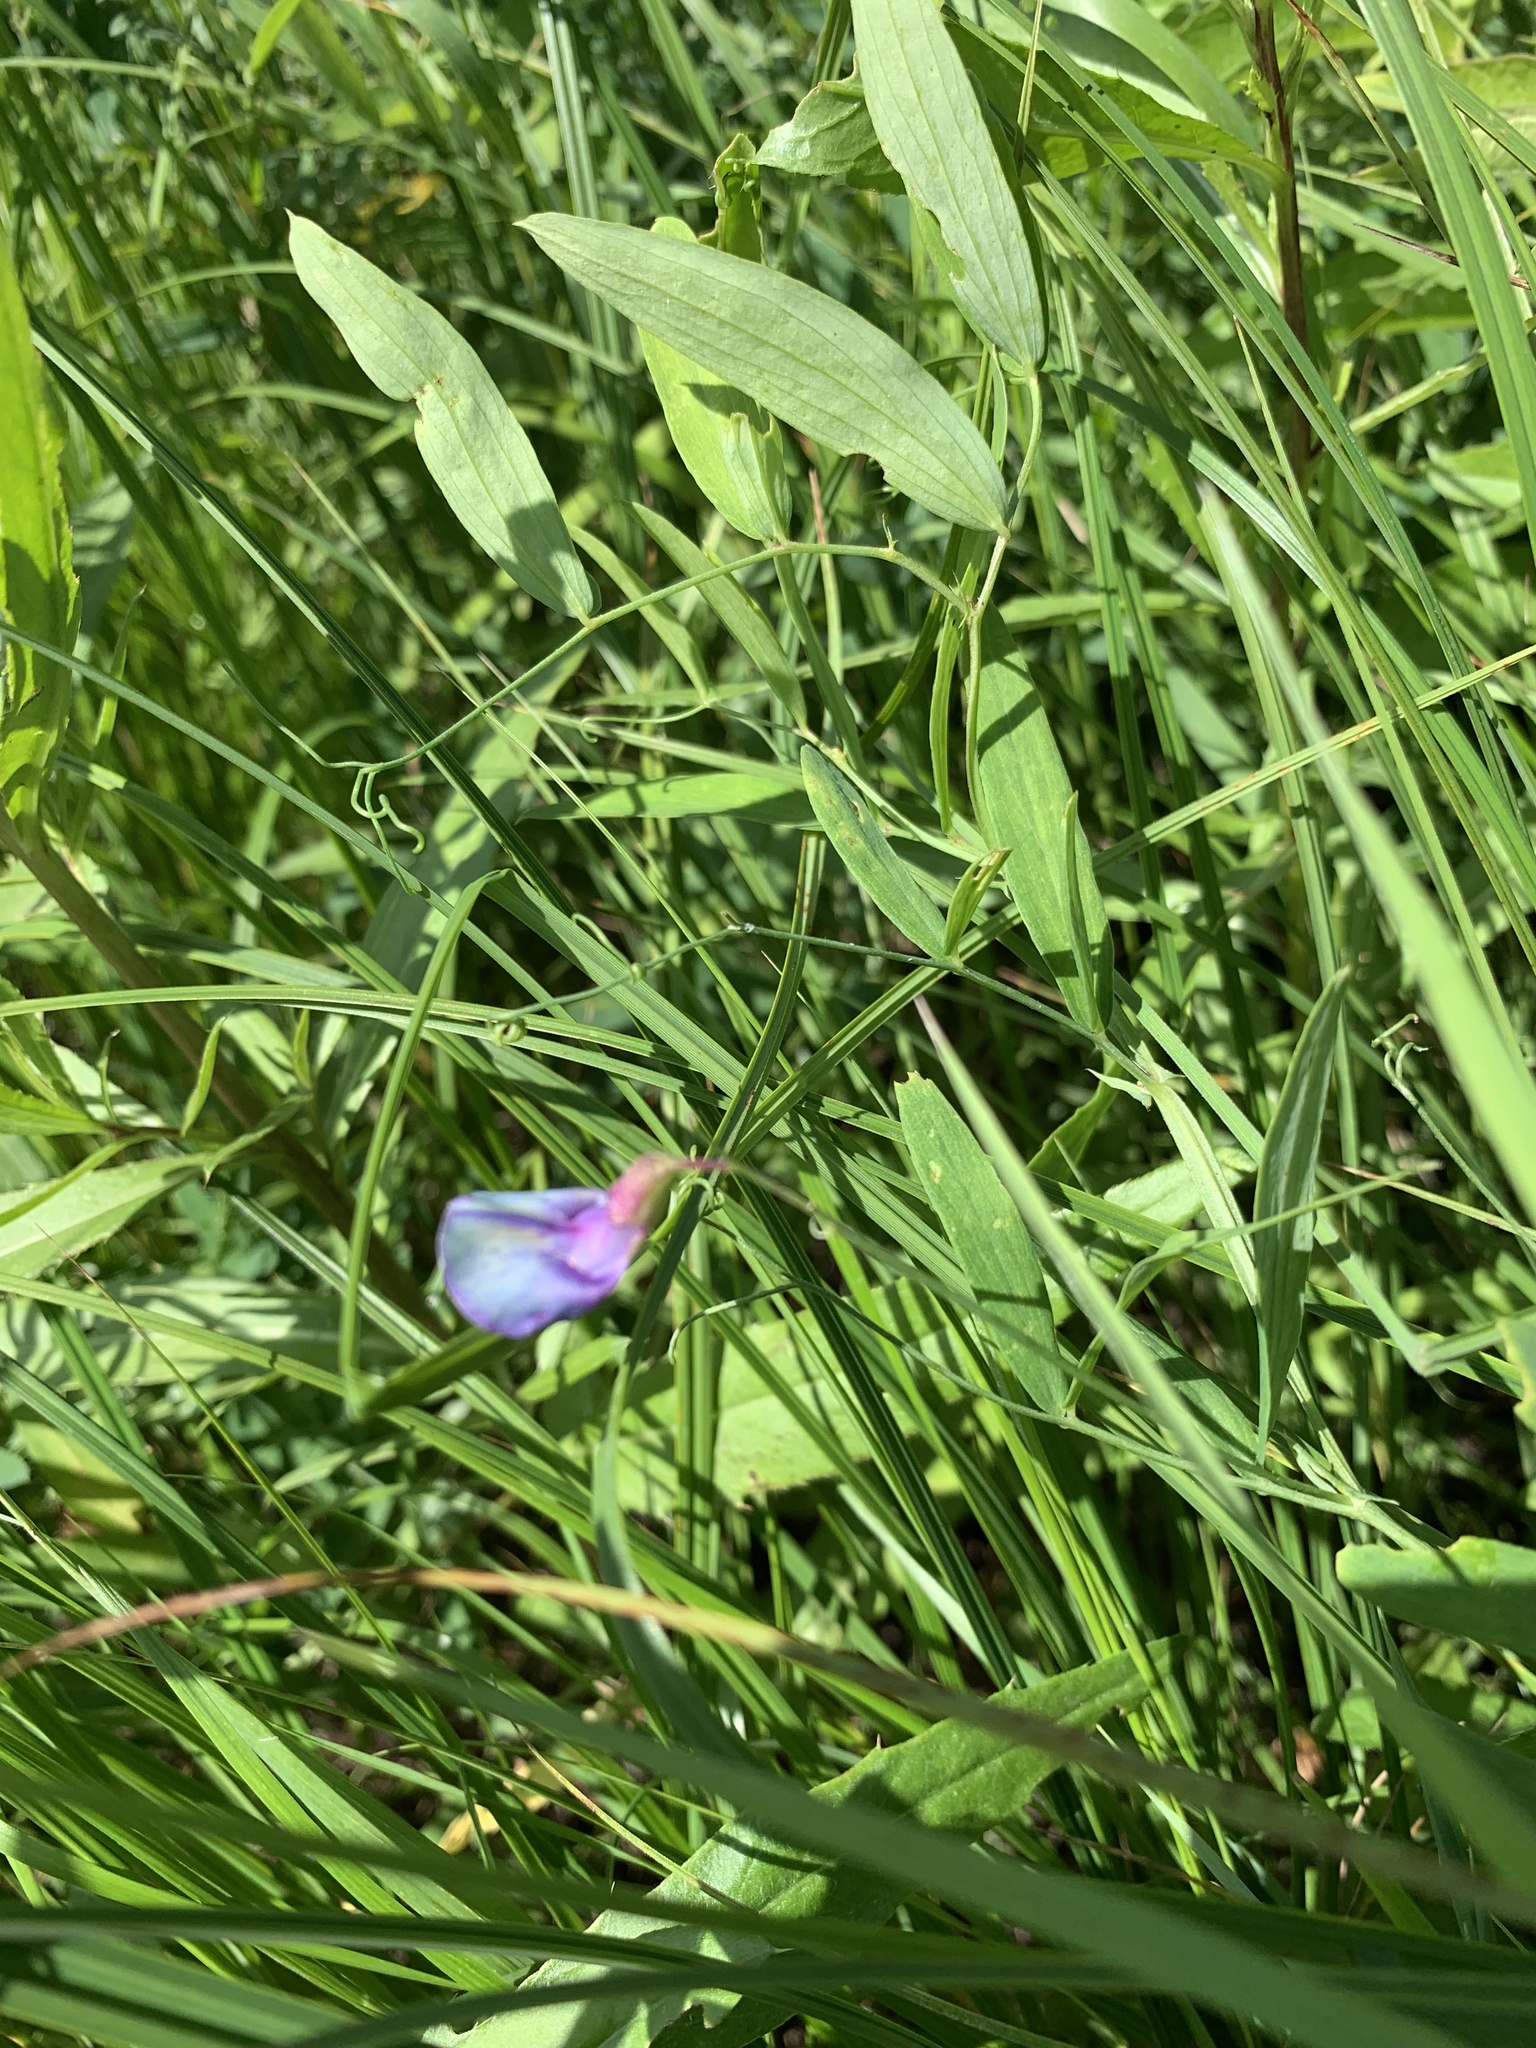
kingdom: Plantae
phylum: Tracheophyta
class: Magnoliopsida
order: Fabales
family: Fabaceae
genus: Lathyrus
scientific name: Lathyrus palustris
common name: Marsh pea
